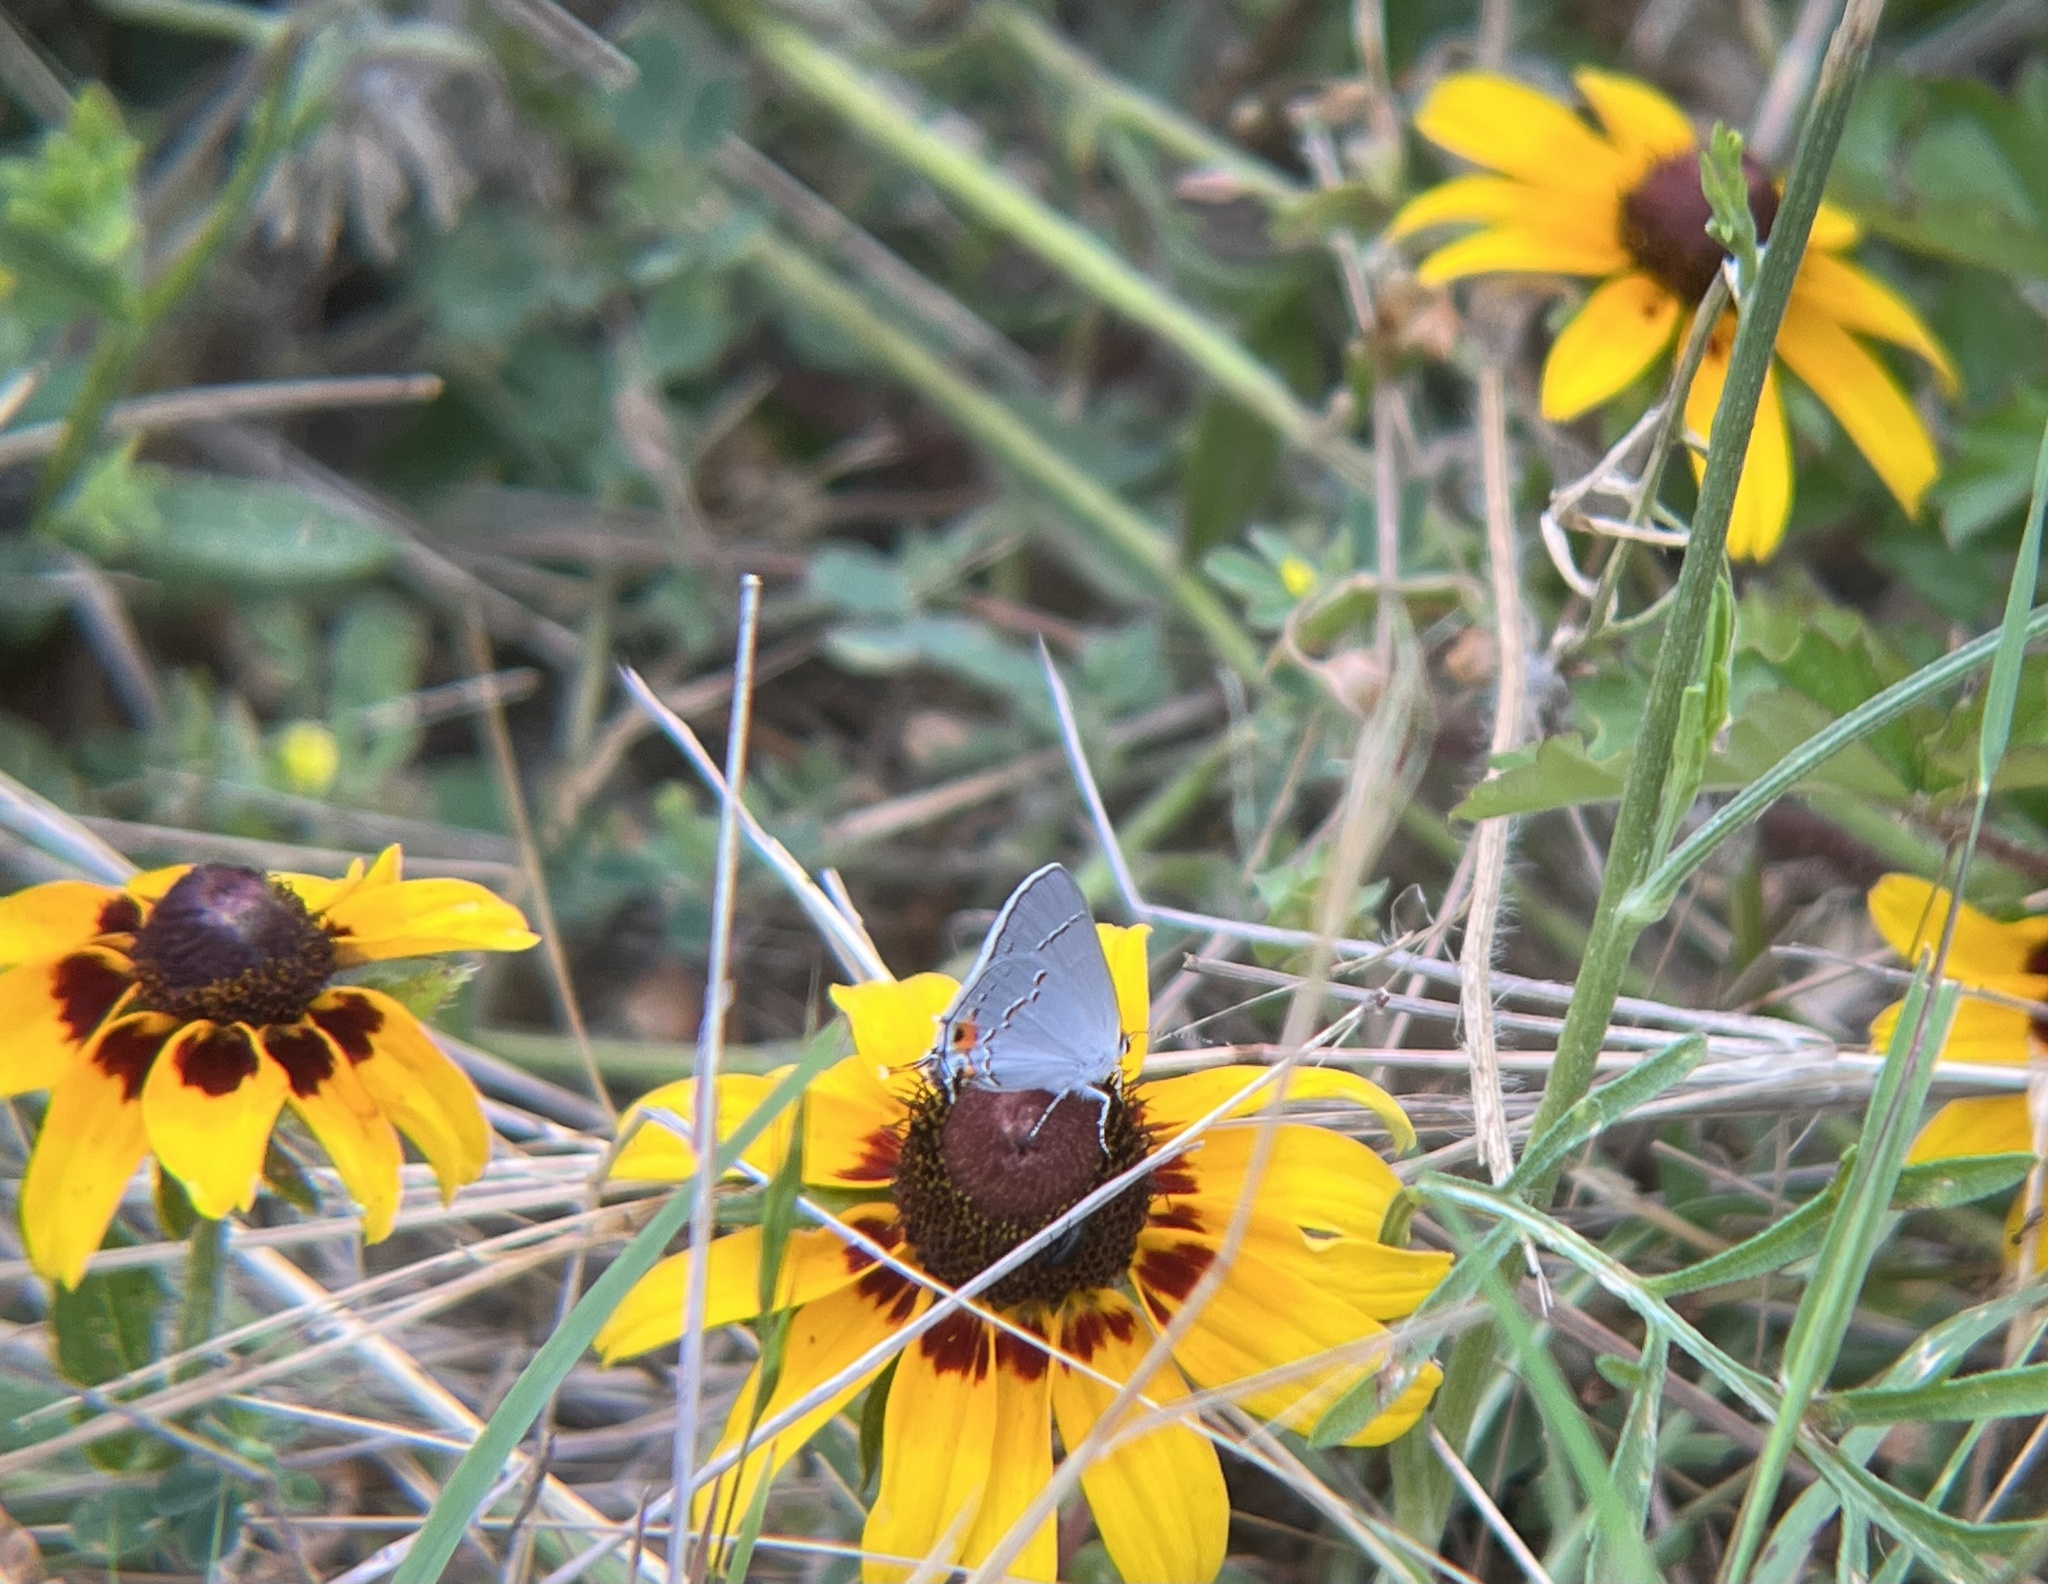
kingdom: Animalia
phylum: Arthropoda
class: Insecta
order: Lepidoptera
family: Lycaenidae
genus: Strymon
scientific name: Strymon melinus
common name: Gray hairstreak
